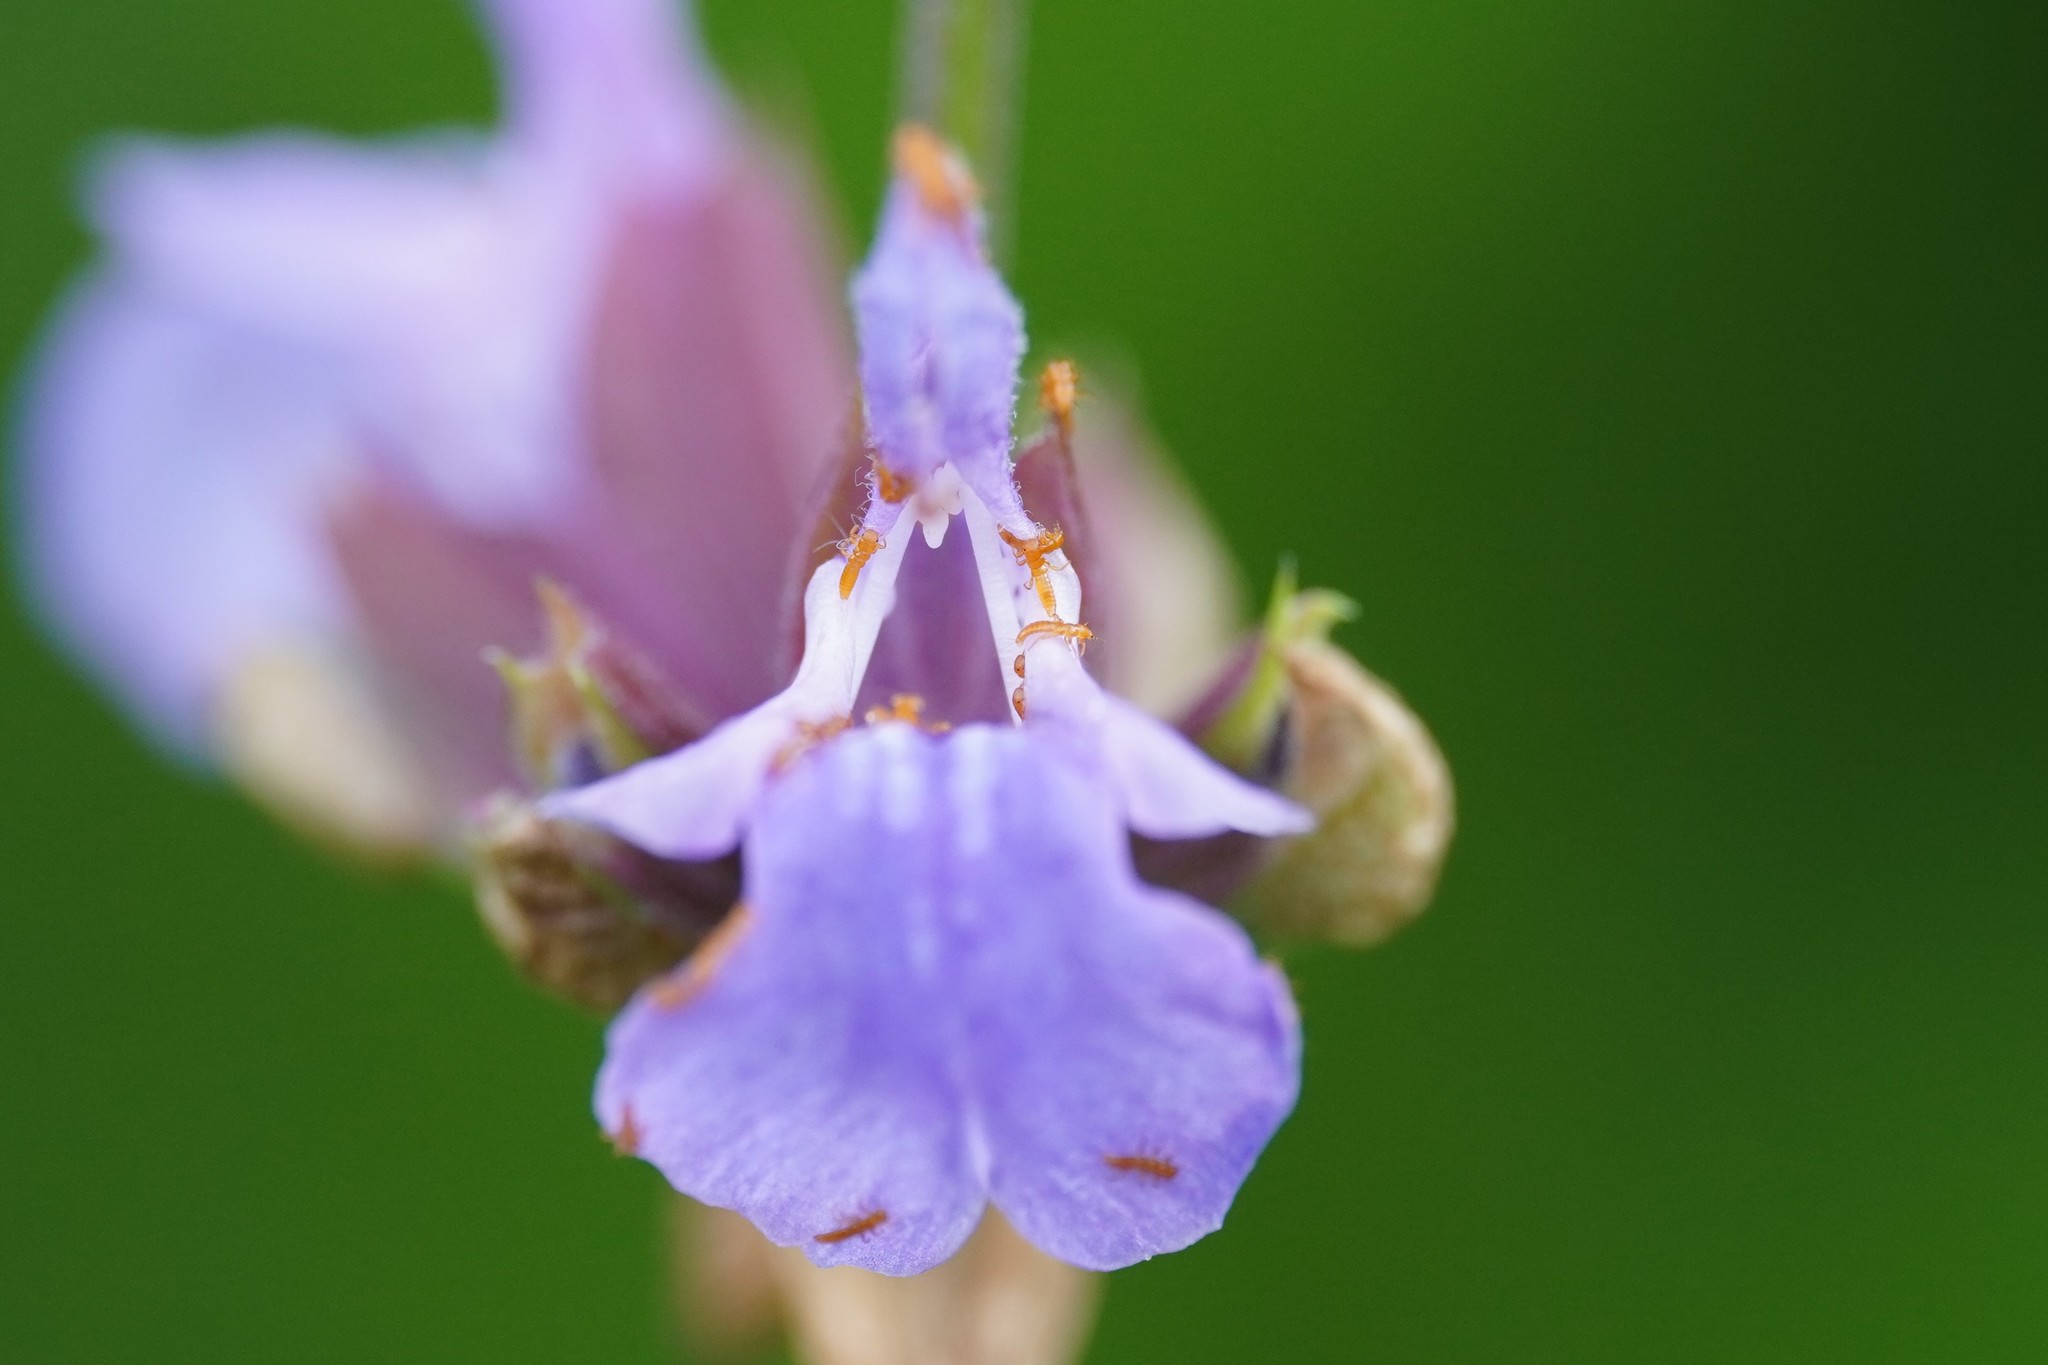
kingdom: Animalia
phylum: Arthropoda
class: Insecta
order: Coleoptera
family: Meloidae
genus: Meloe
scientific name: Meloe proscarabaeus
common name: Black oil-beetle
